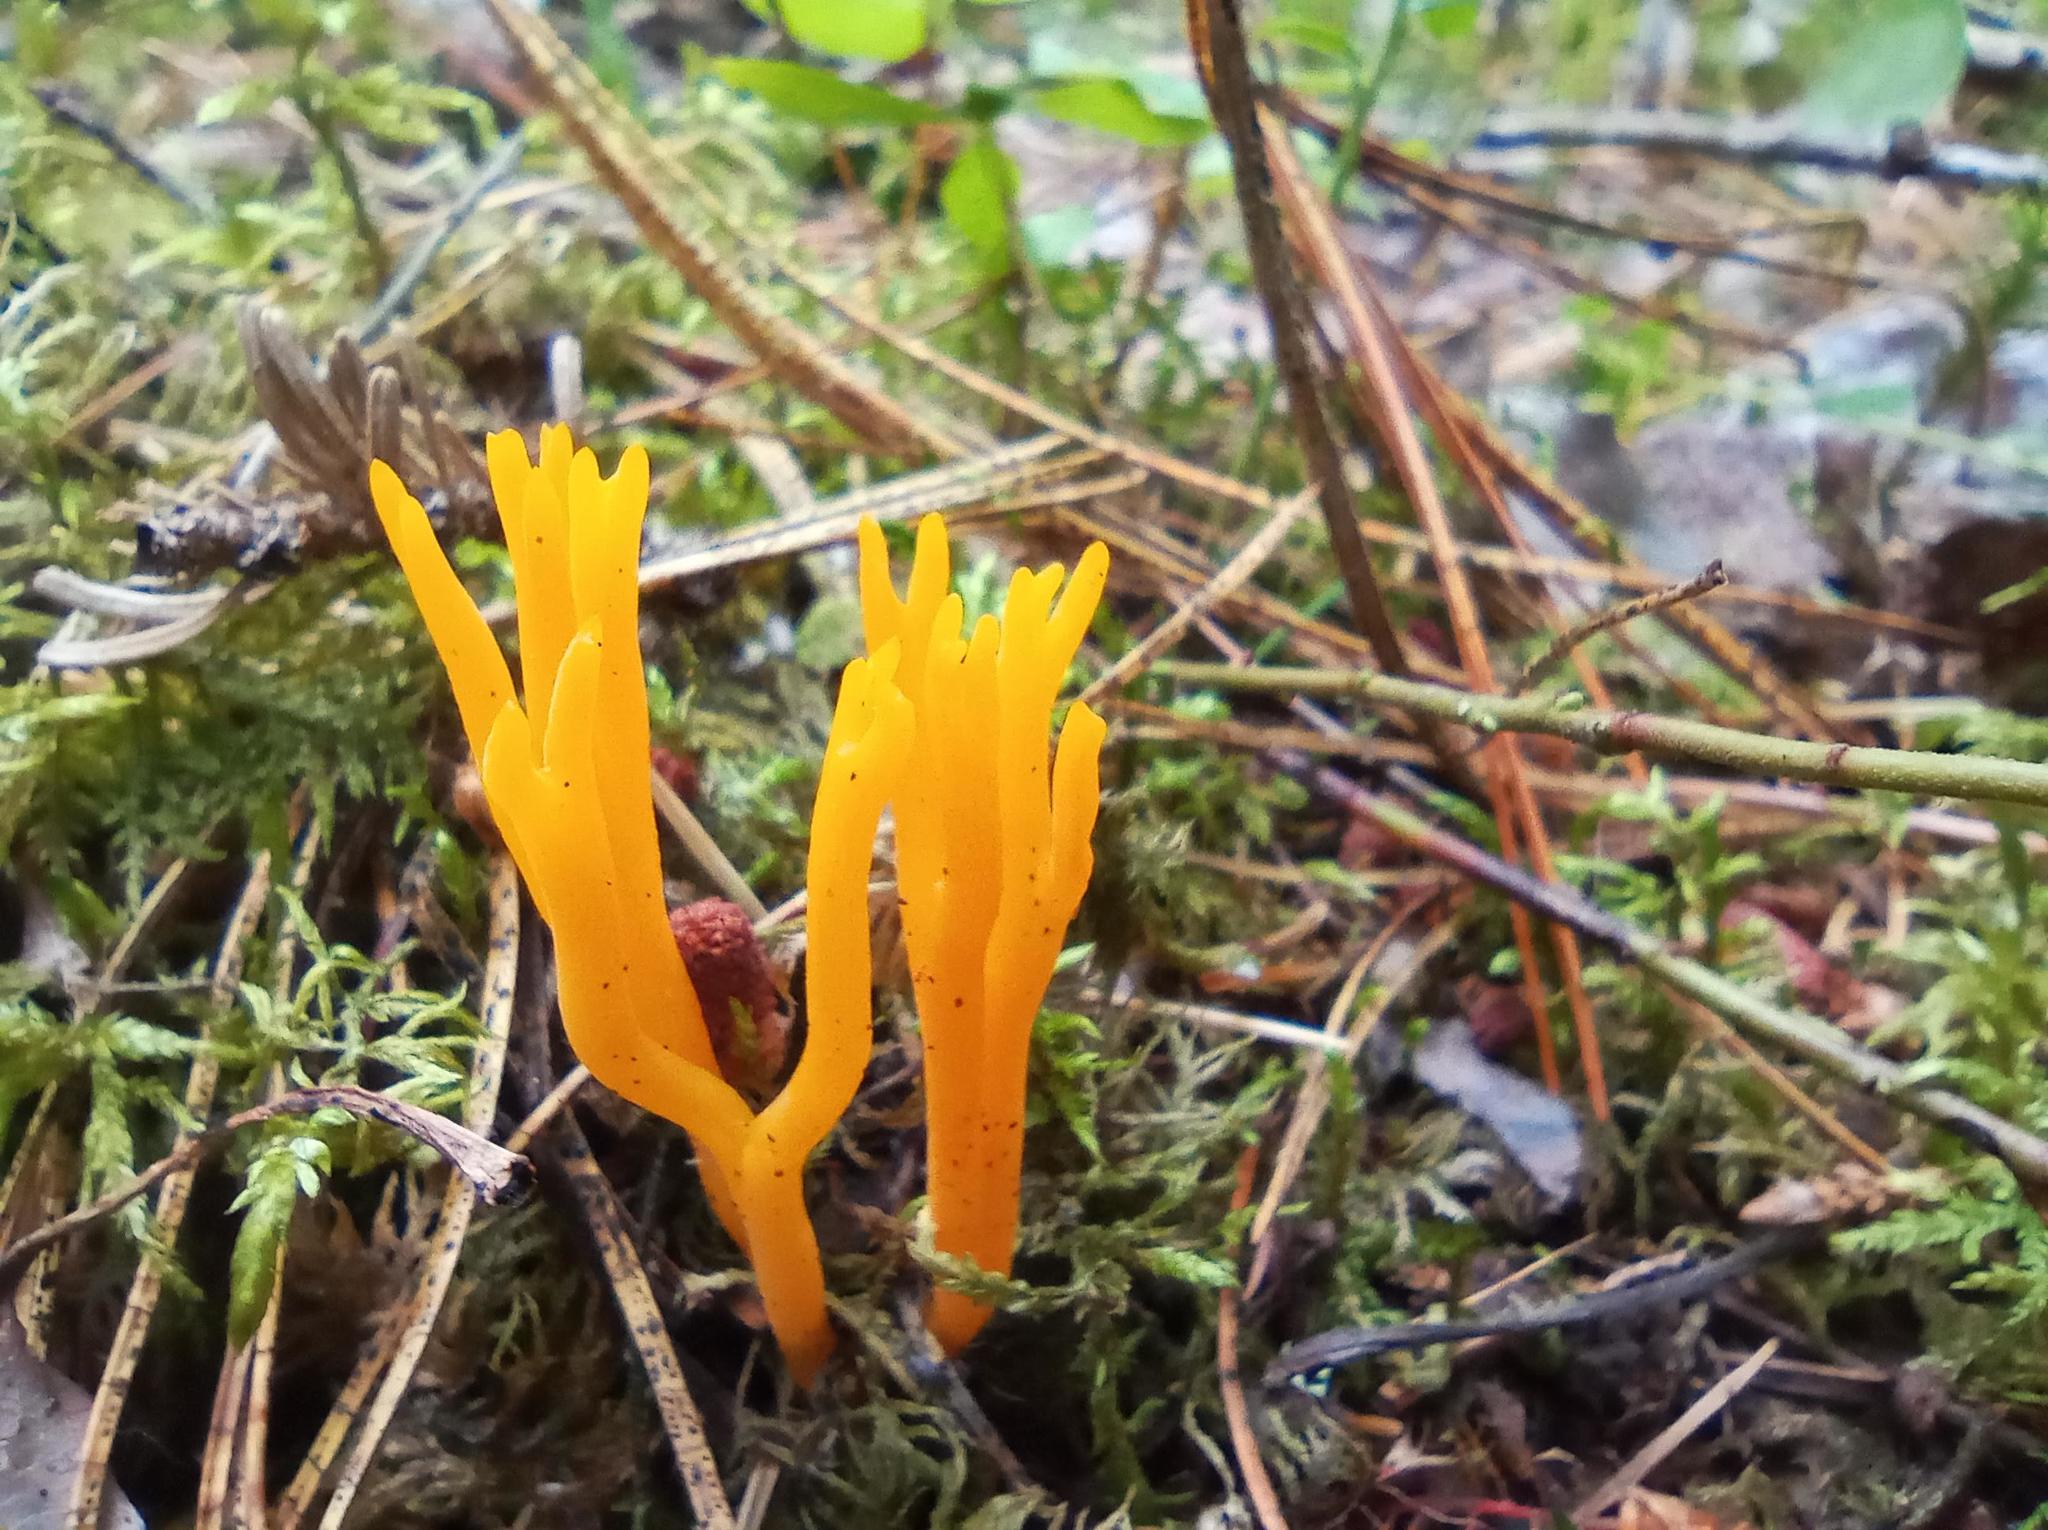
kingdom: Fungi
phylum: Basidiomycota
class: Dacrymycetes
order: Dacrymycetales
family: Dacrymycetaceae
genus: Calocera
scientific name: Calocera viscosa
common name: Yellow stagshorn
